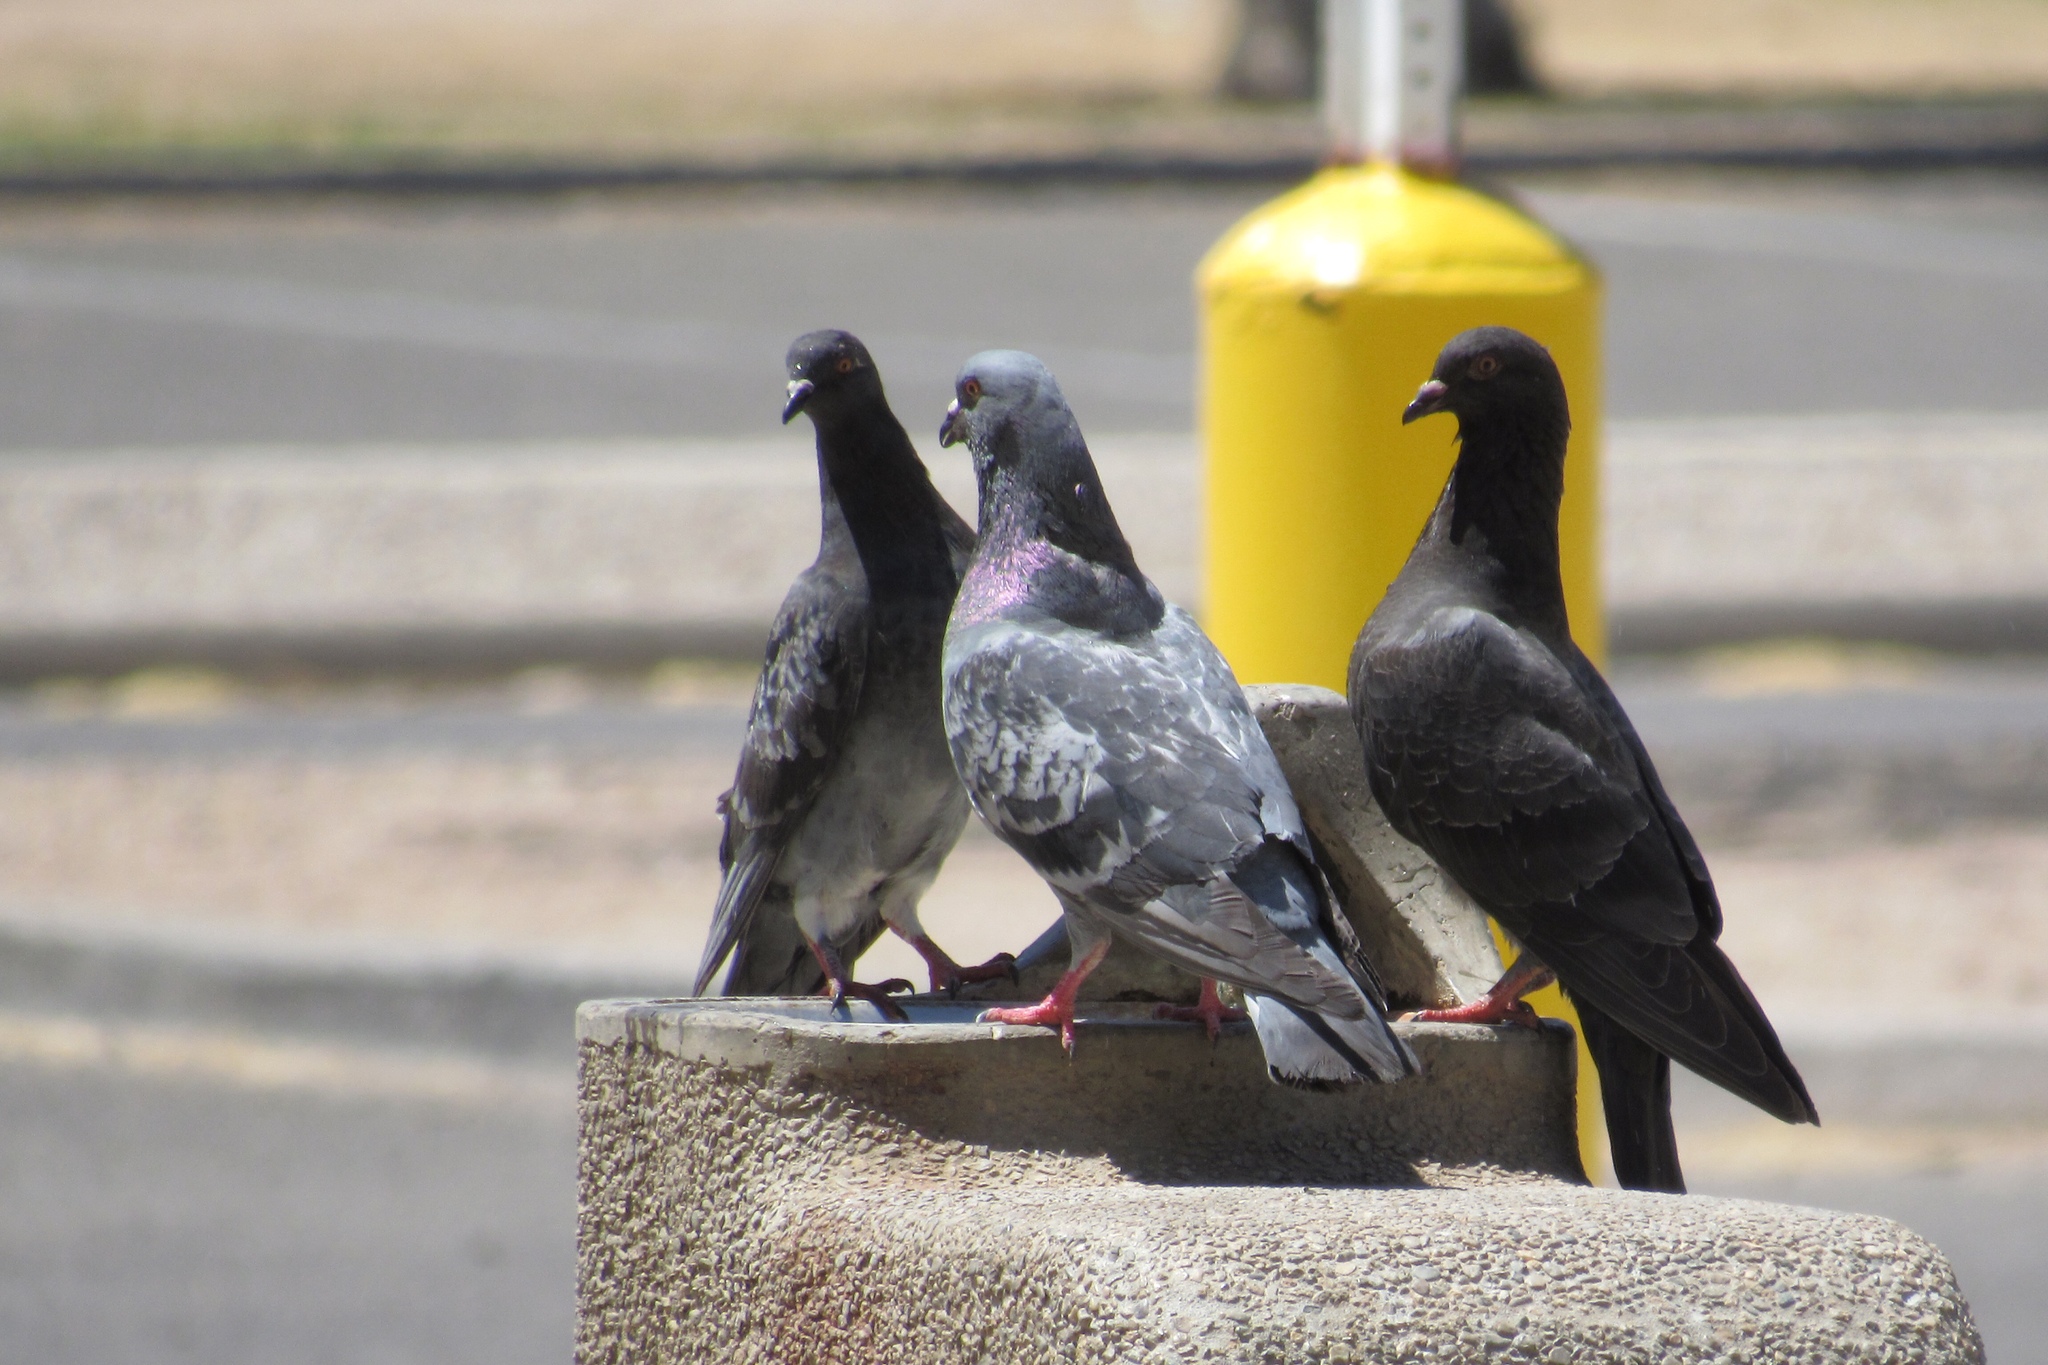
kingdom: Animalia
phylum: Chordata
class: Aves
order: Columbiformes
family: Columbidae
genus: Columba
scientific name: Columba livia
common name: Rock pigeon
